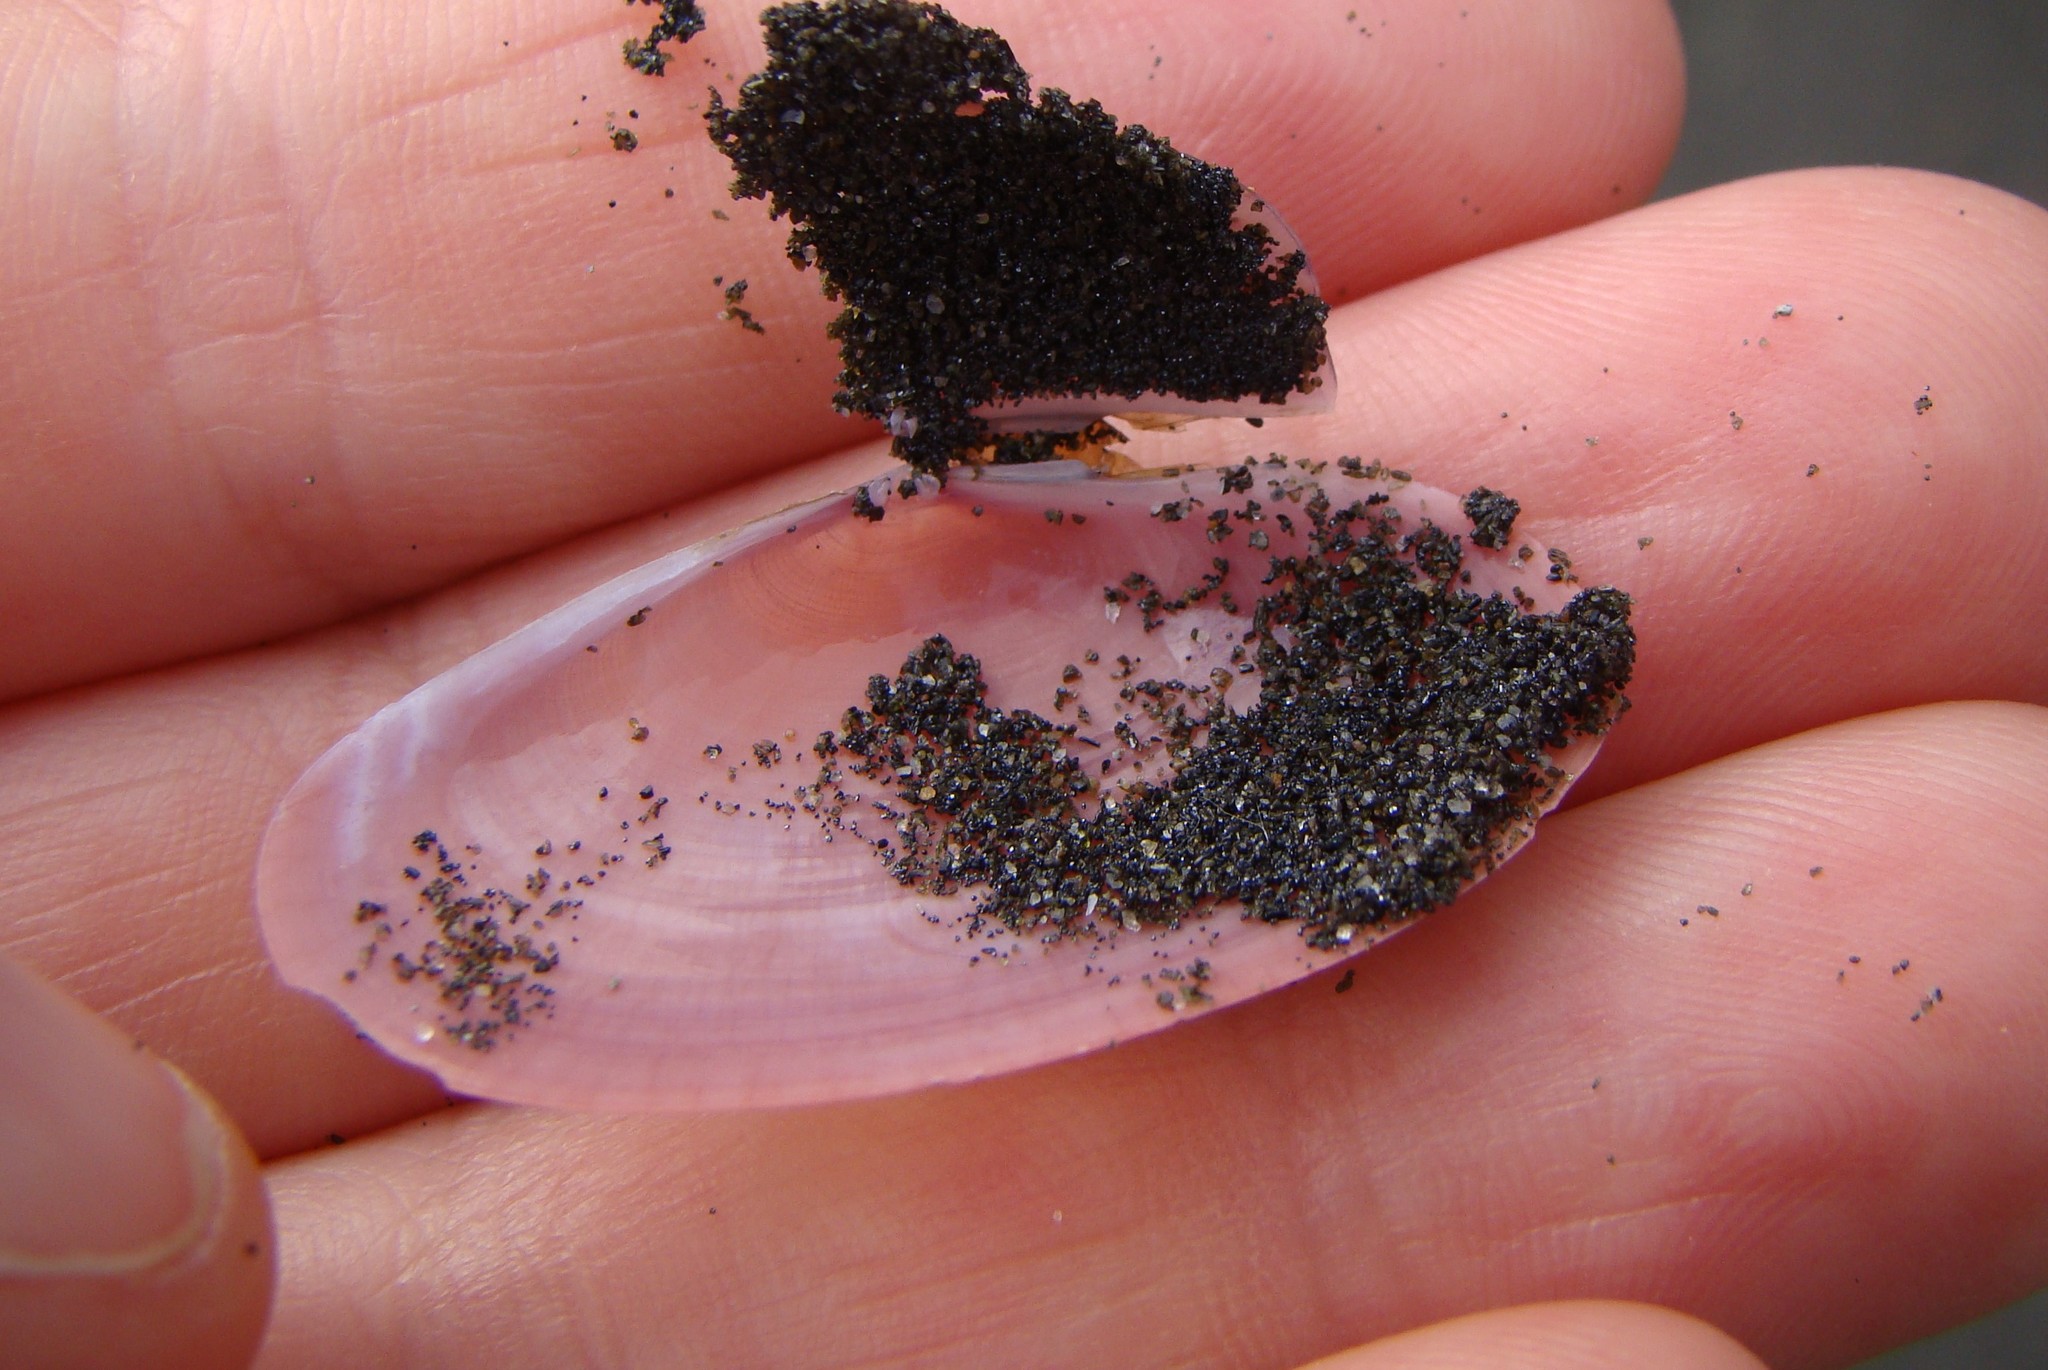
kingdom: Animalia
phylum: Mollusca
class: Bivalvia
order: Cardiida
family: Psammobiidae
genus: Gari
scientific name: Gari lineolata
